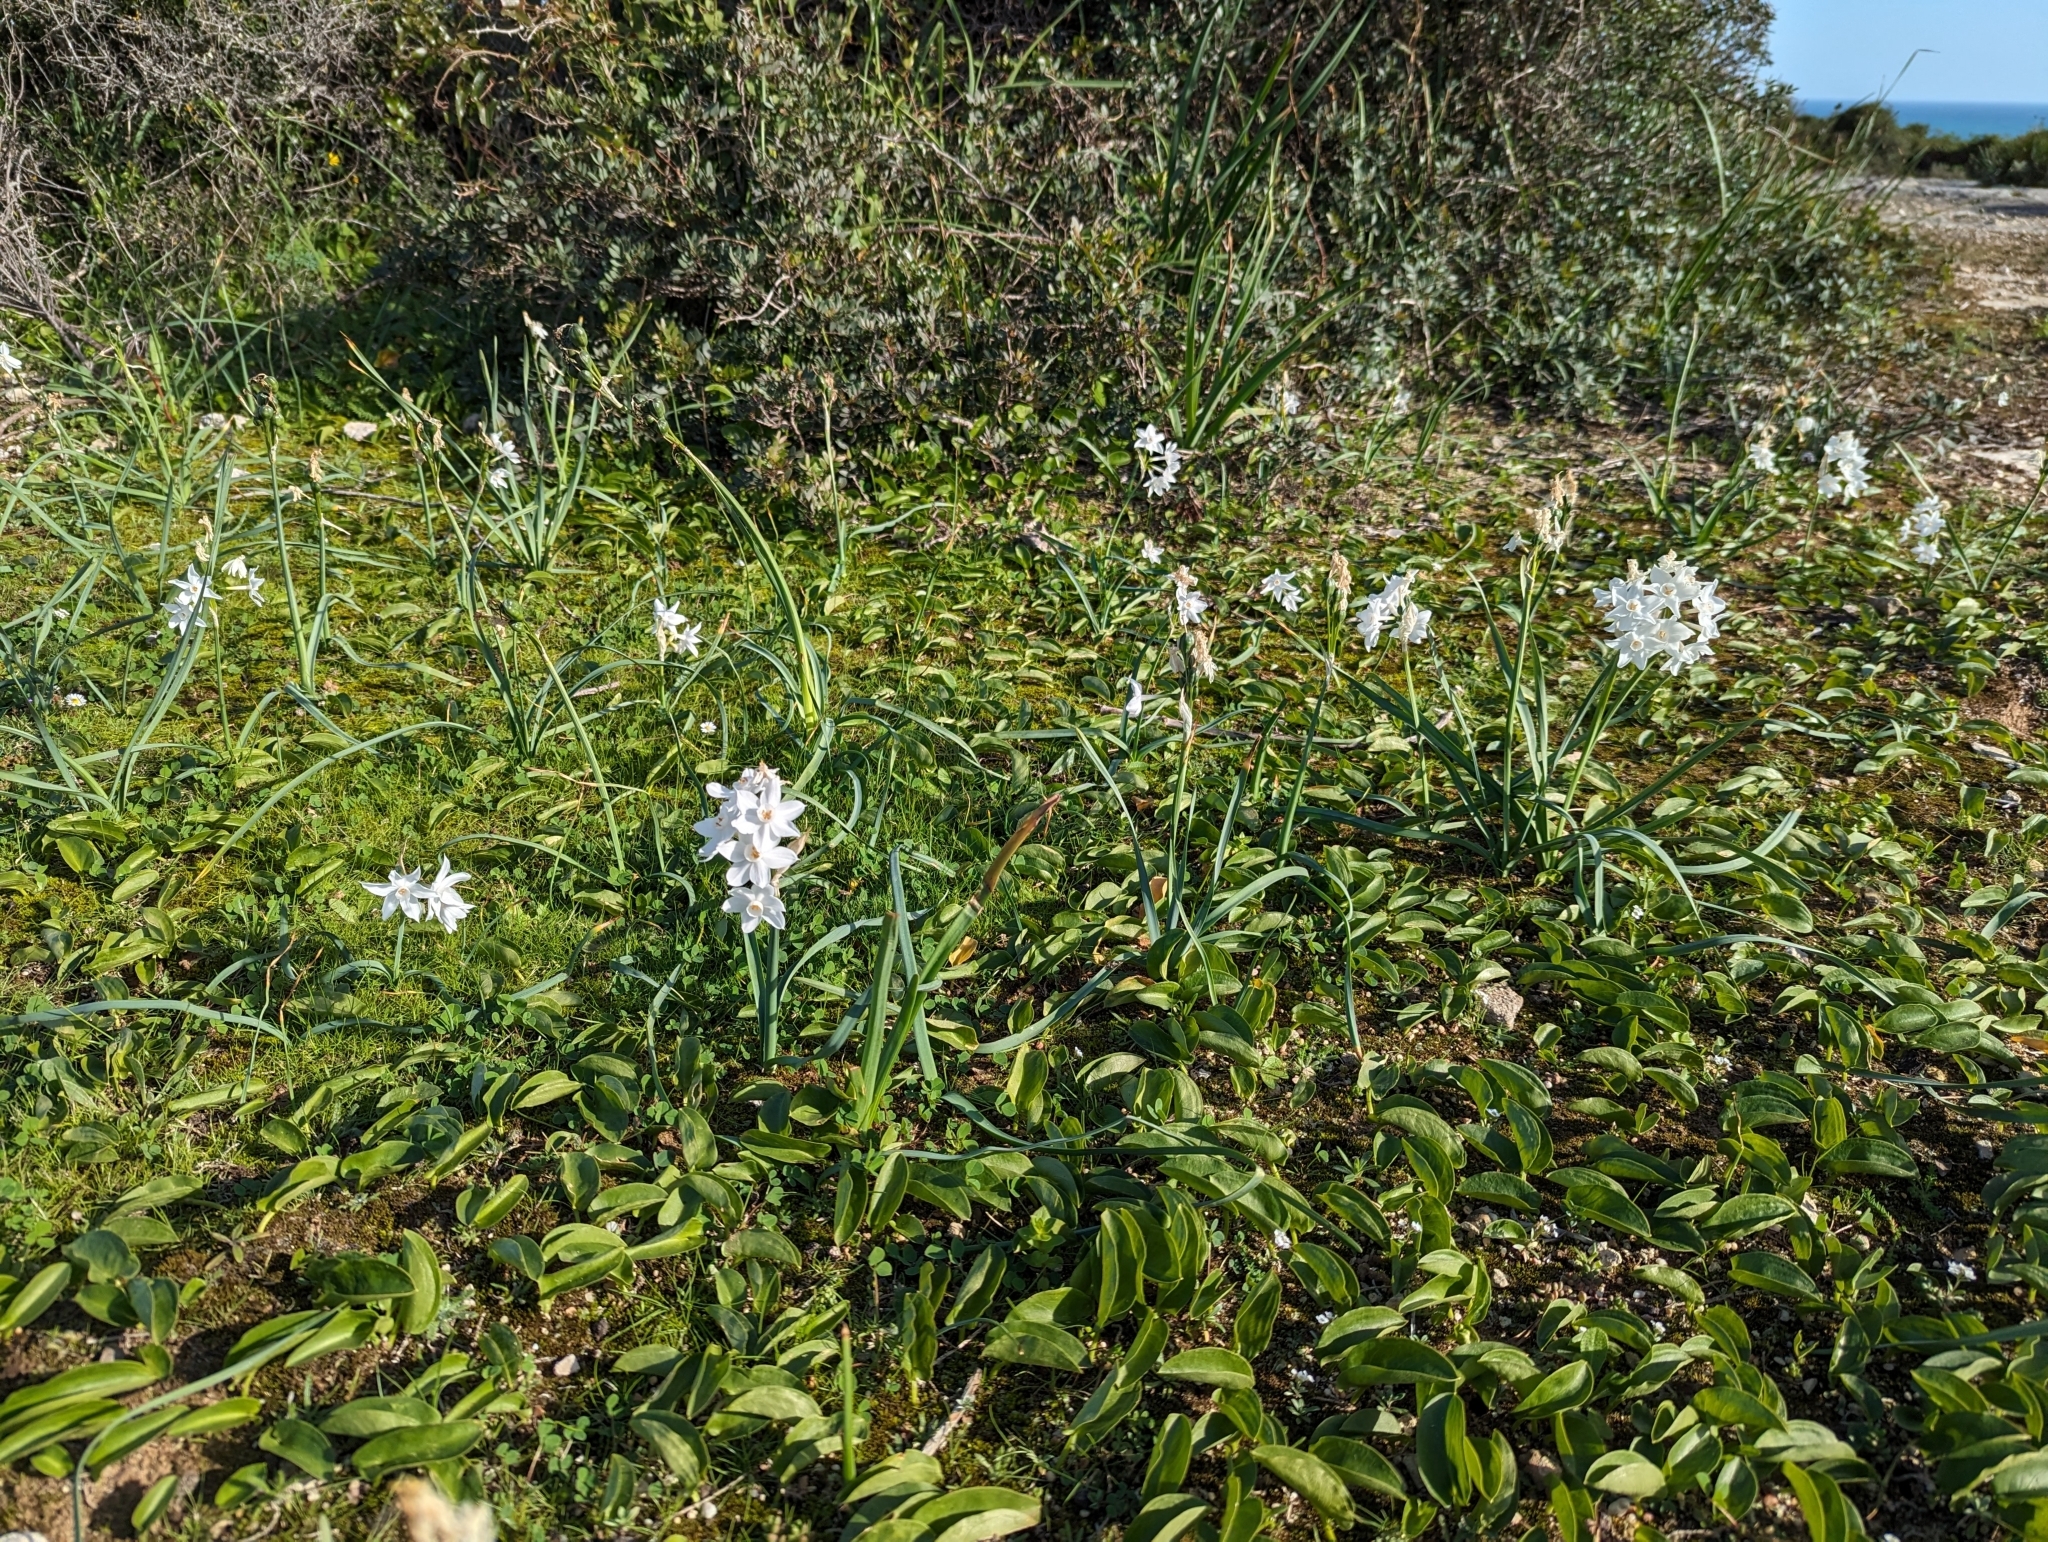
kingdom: Plantae
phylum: Tracheophyta
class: Liliopsida
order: Asparagales
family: Amaryllidaceae
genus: Narcissus
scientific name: Narcissus papyraceus
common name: Paper-white daffodil
